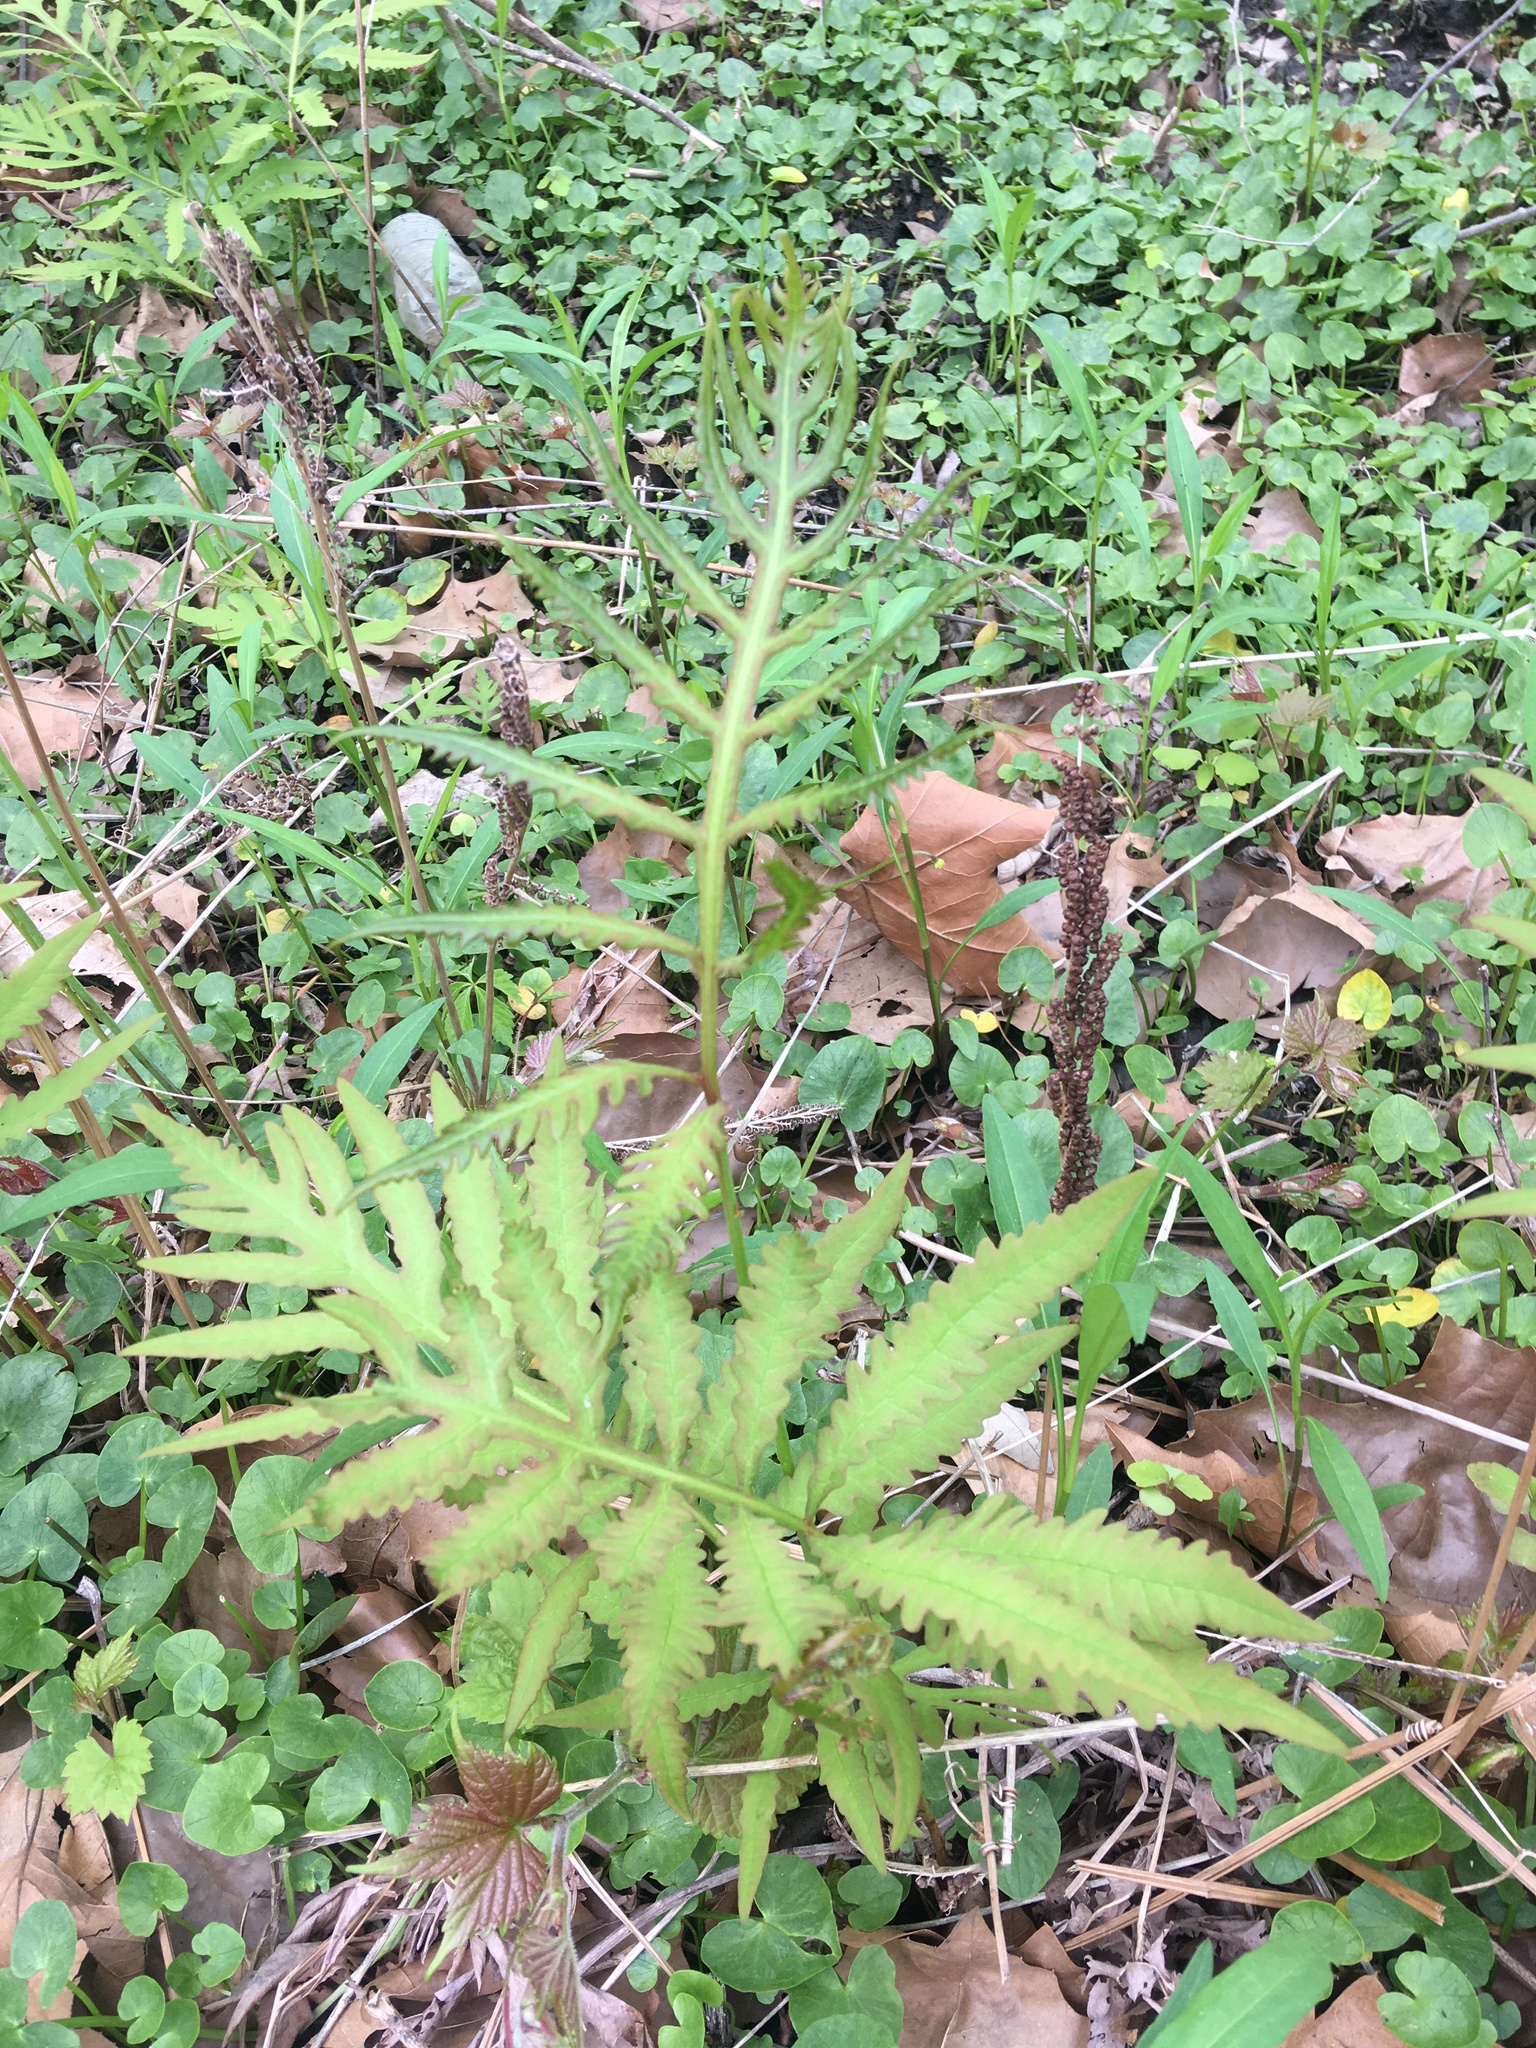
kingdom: Plantae
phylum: Tracheophyta
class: Polypodiopsida
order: Polypodiales
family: Onocleaceae
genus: Onoclea
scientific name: Onoclea sensibilis
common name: Sensitive fern
